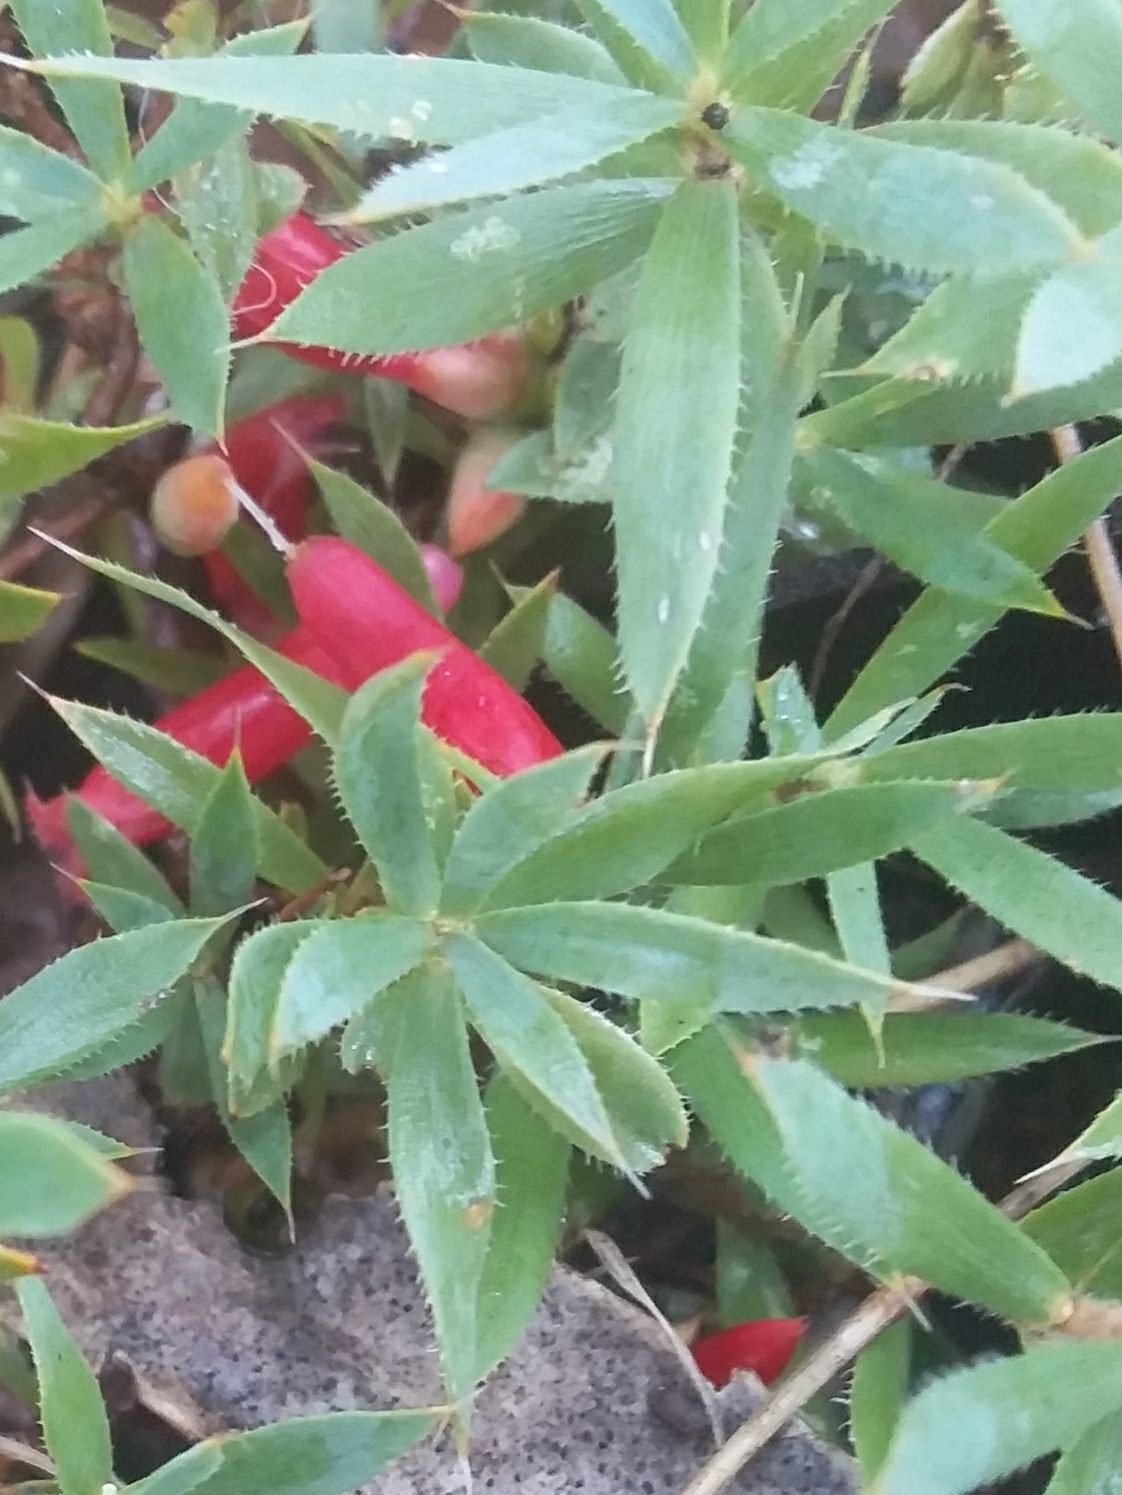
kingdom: Plantae
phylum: Tracheophyta
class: Magnoliopsida
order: Ericales
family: Ericaceae
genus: Styphelia
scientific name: Styphelia humifusa
